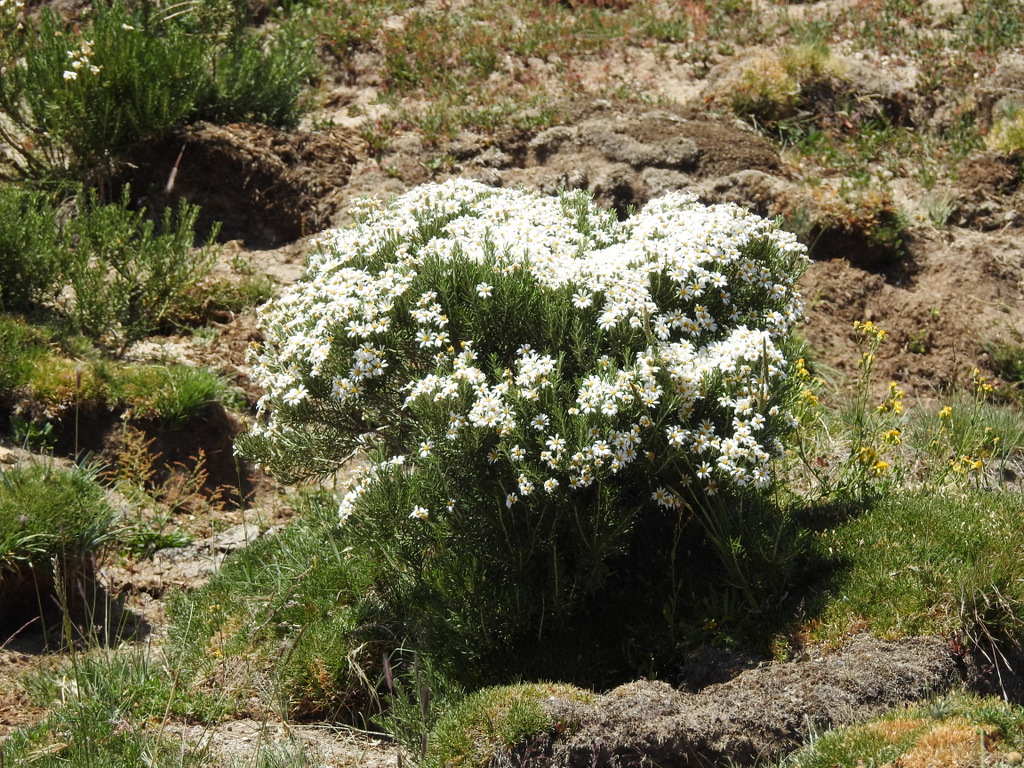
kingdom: Plantae
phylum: Tracheophyta
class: Magnoliopsida
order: Asterales
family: Asteraceae
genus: Chiliotrichum
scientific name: Chiliotrichum diffusum
